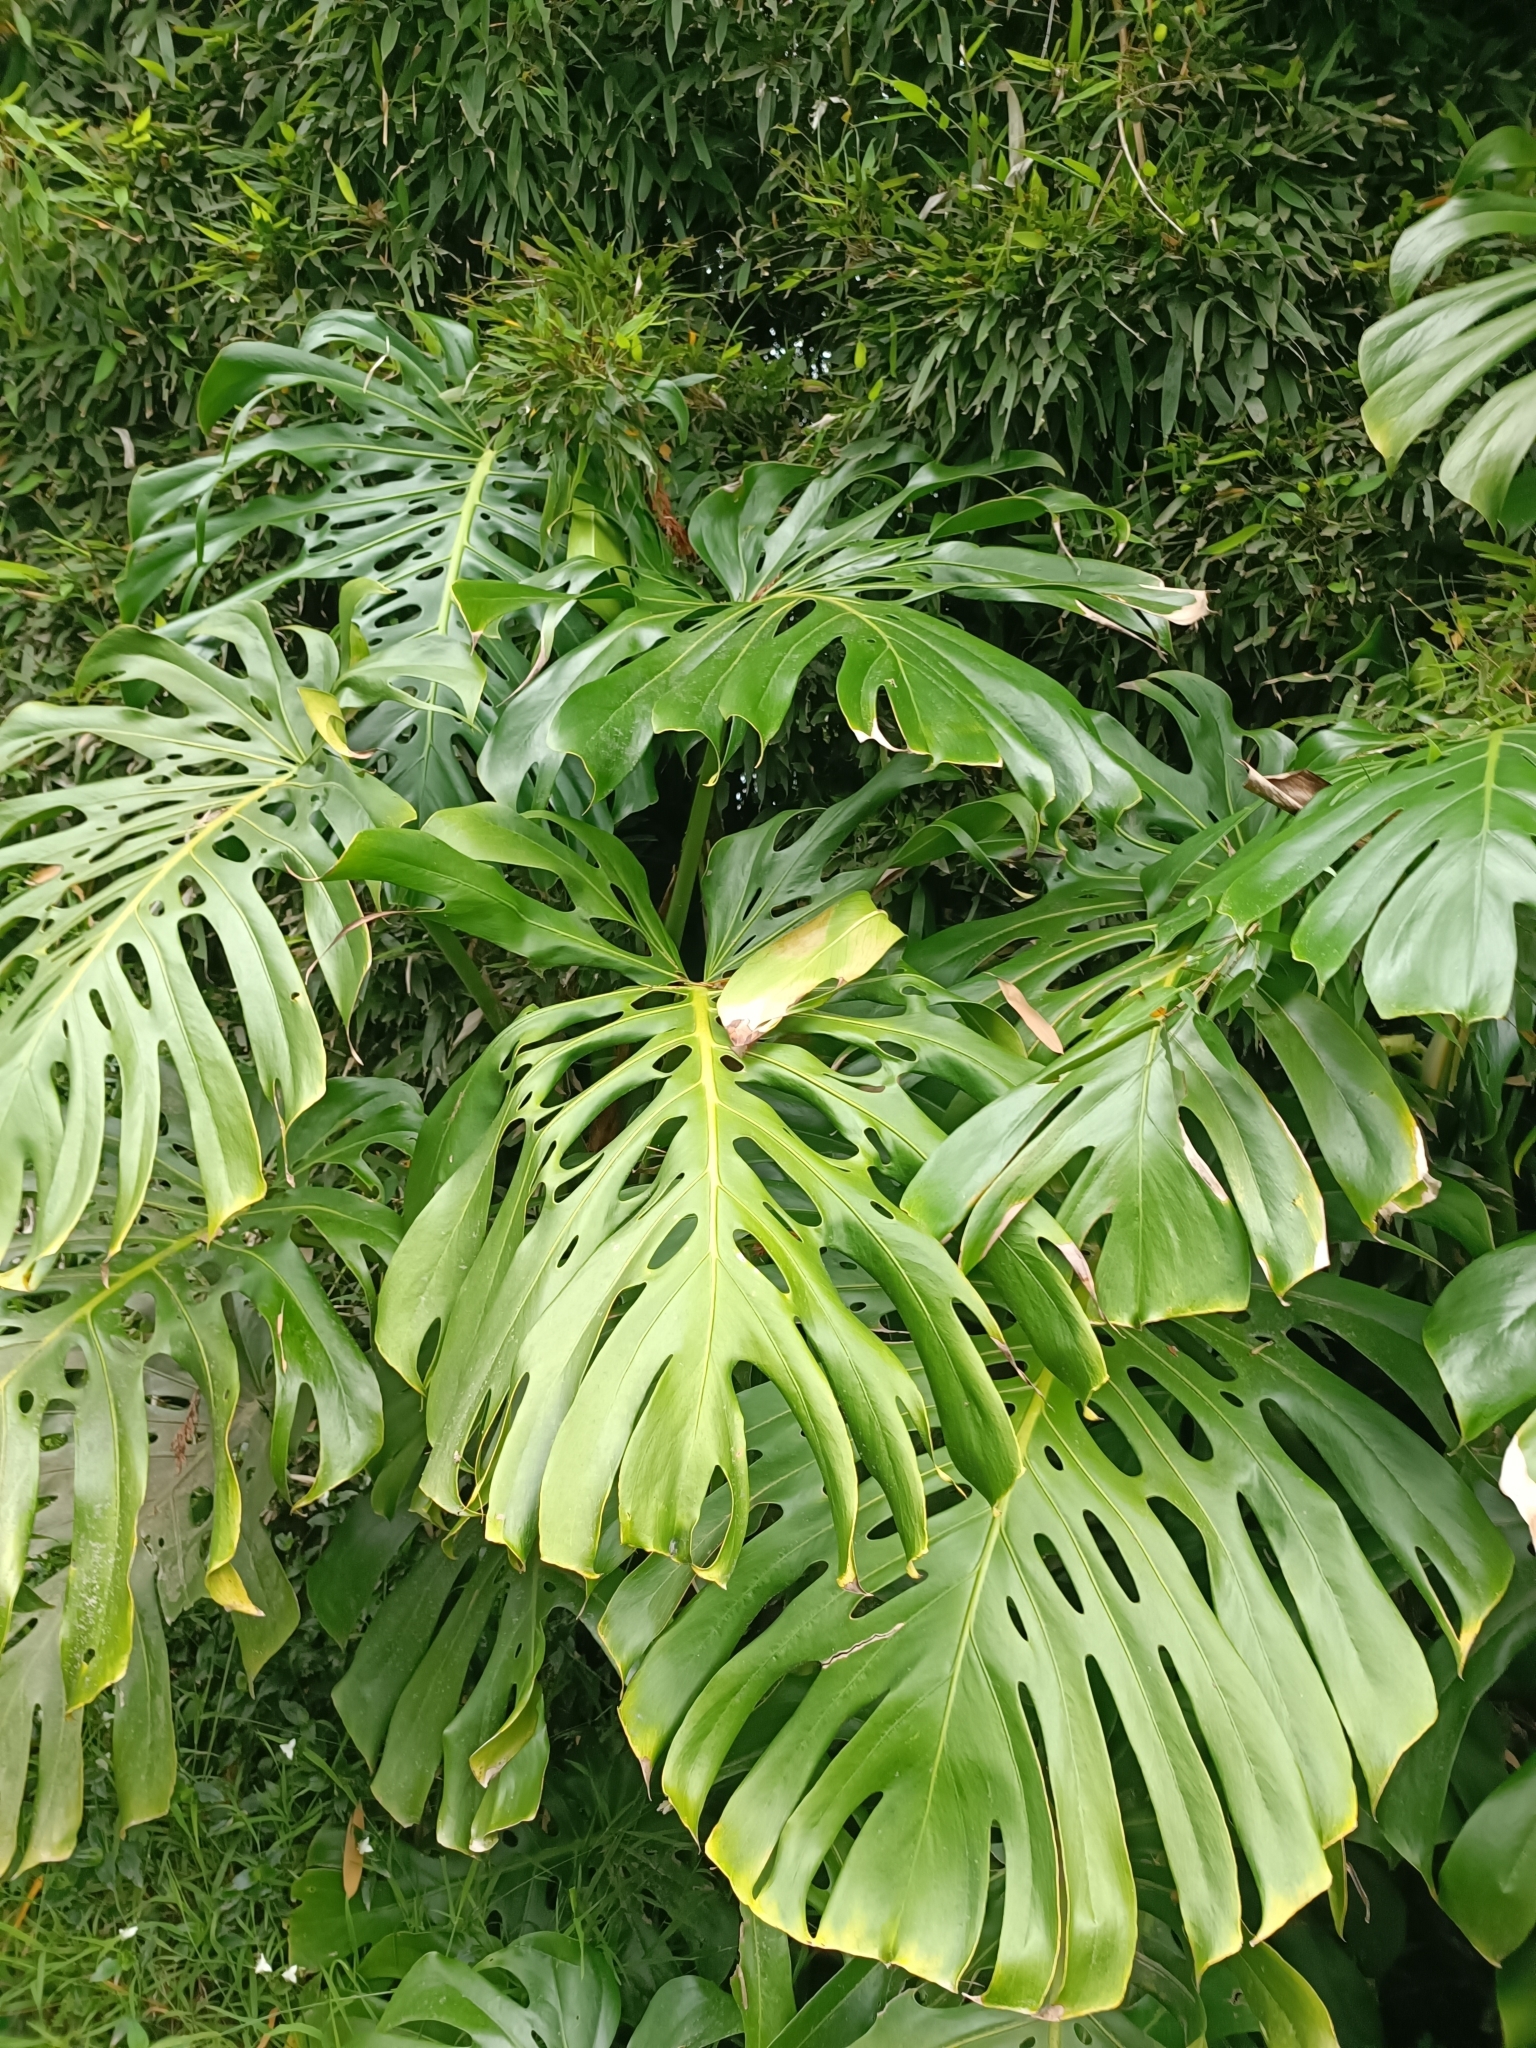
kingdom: Plantae
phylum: Tracheophyta
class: Liliopsida
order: Alismatales
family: Araceae
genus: Monstera
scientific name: Monstera deliciosa
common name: Cut-leaf-philodendron
